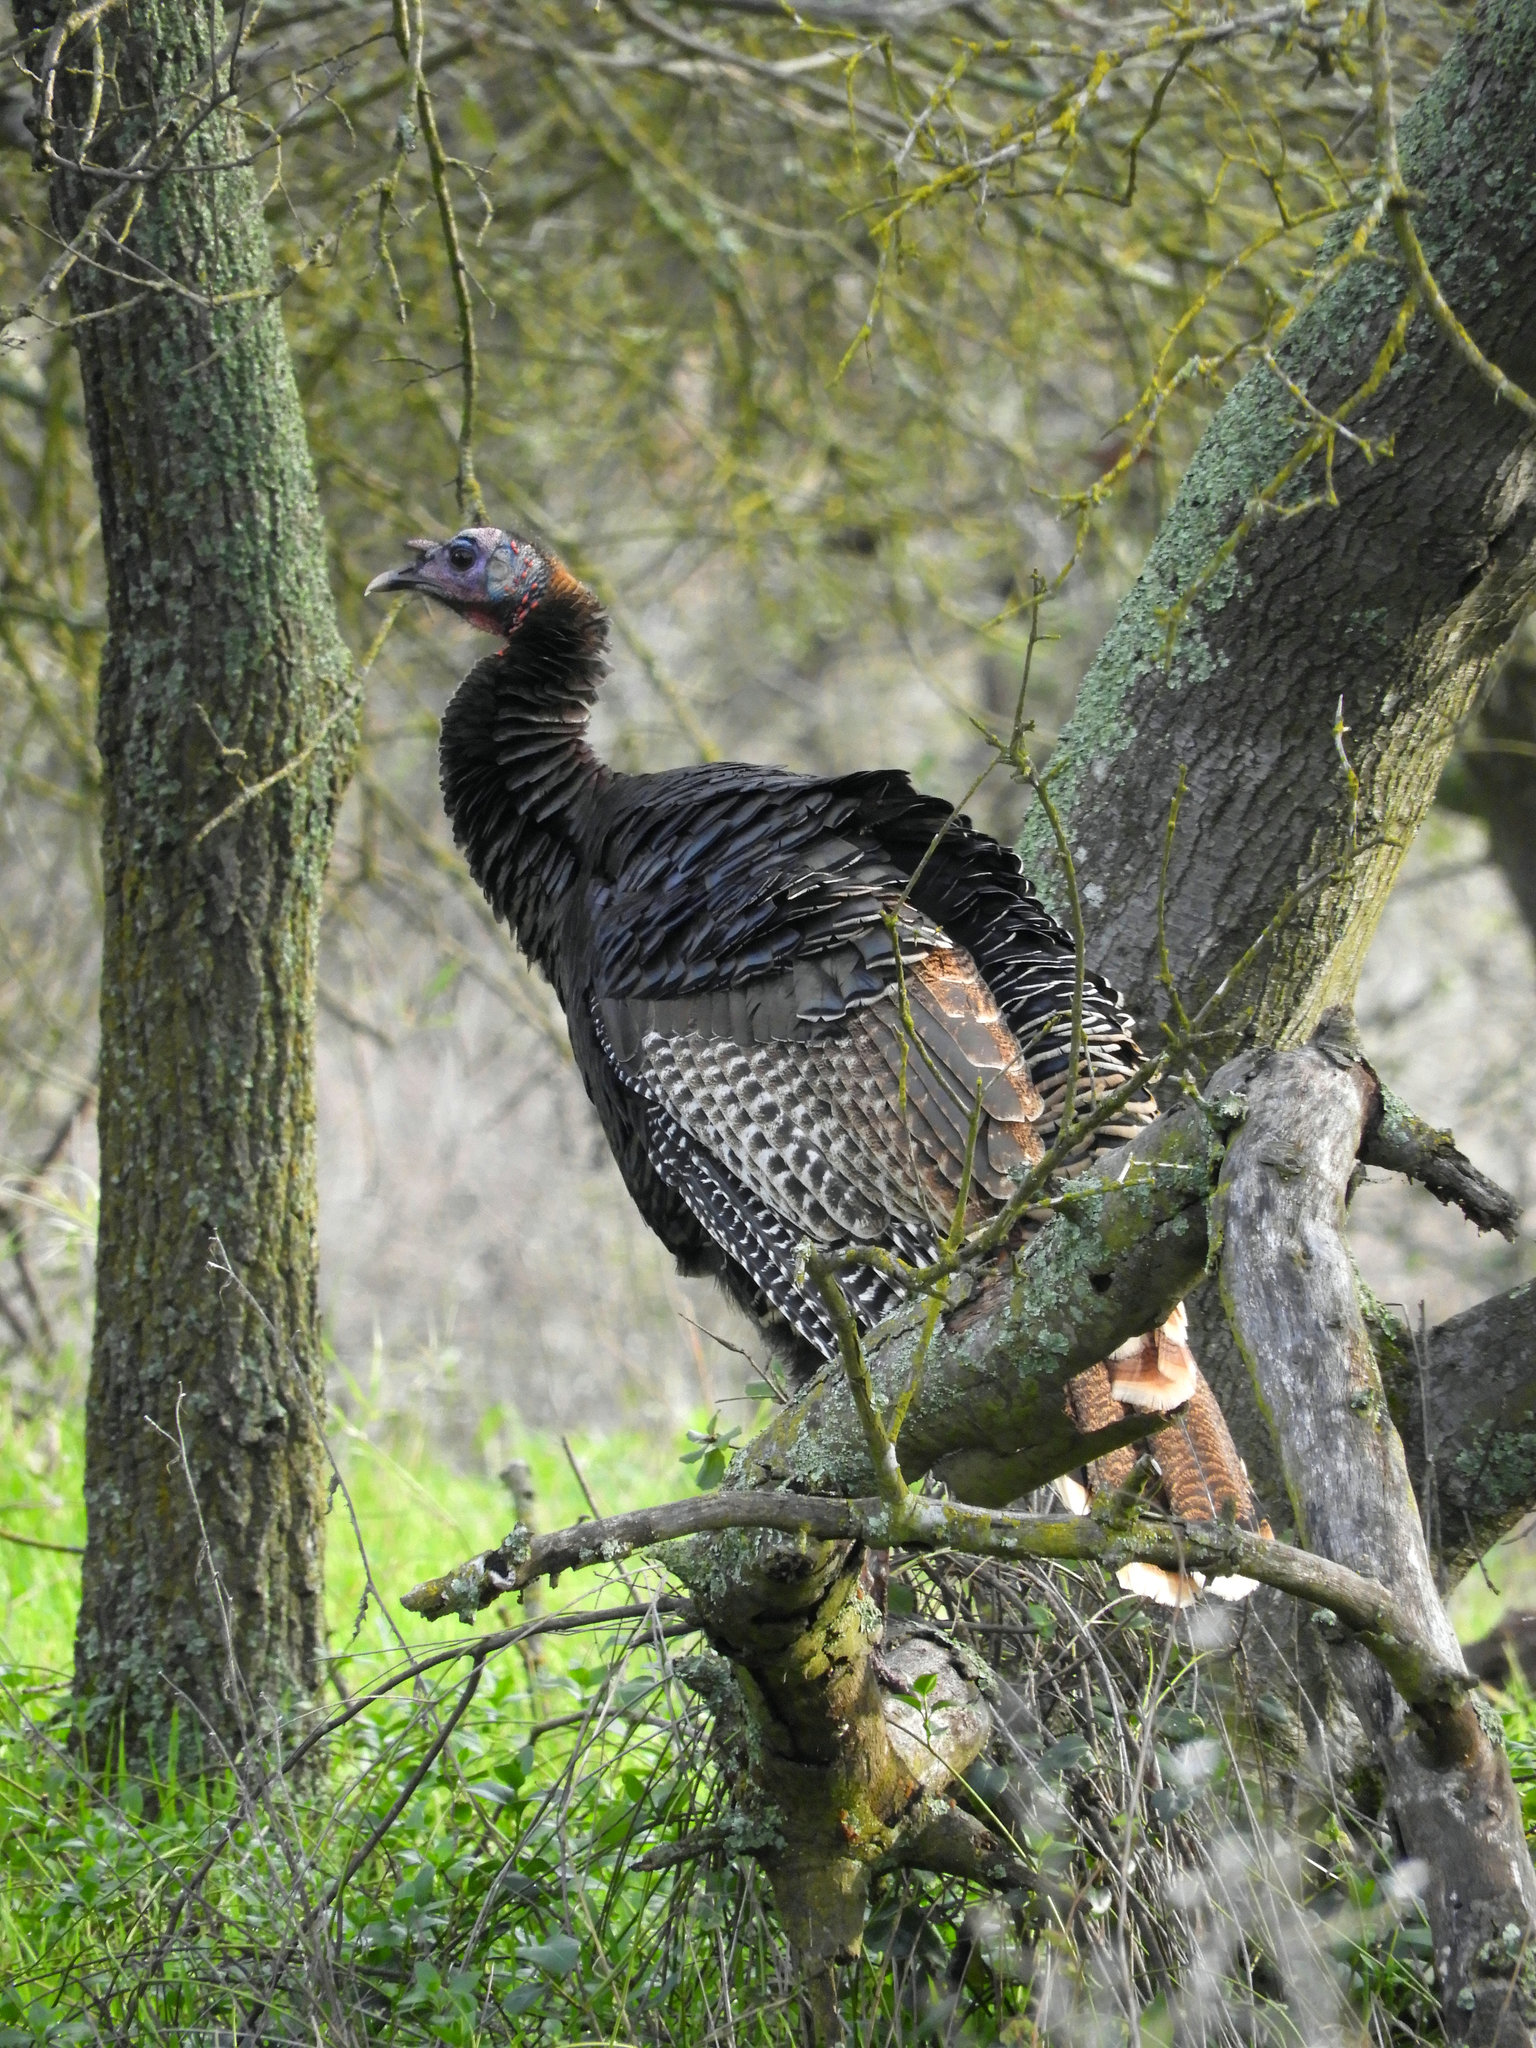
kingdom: Animalia
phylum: Chordata
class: Aves
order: Galliformes
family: Phasianidae
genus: Meleagris
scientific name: Meleagris gallopavo
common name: Wild turkey
